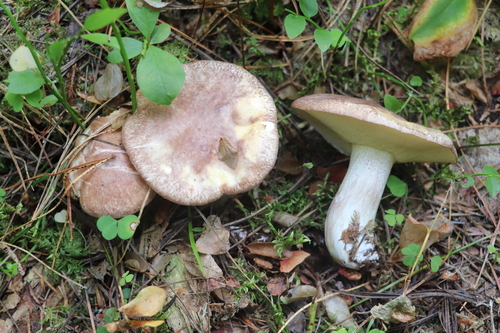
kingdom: Fungi
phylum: Basidiomycota
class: Agaricomycetes
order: Boletales
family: Suillaceae
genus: Suillus
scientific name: Suillus
